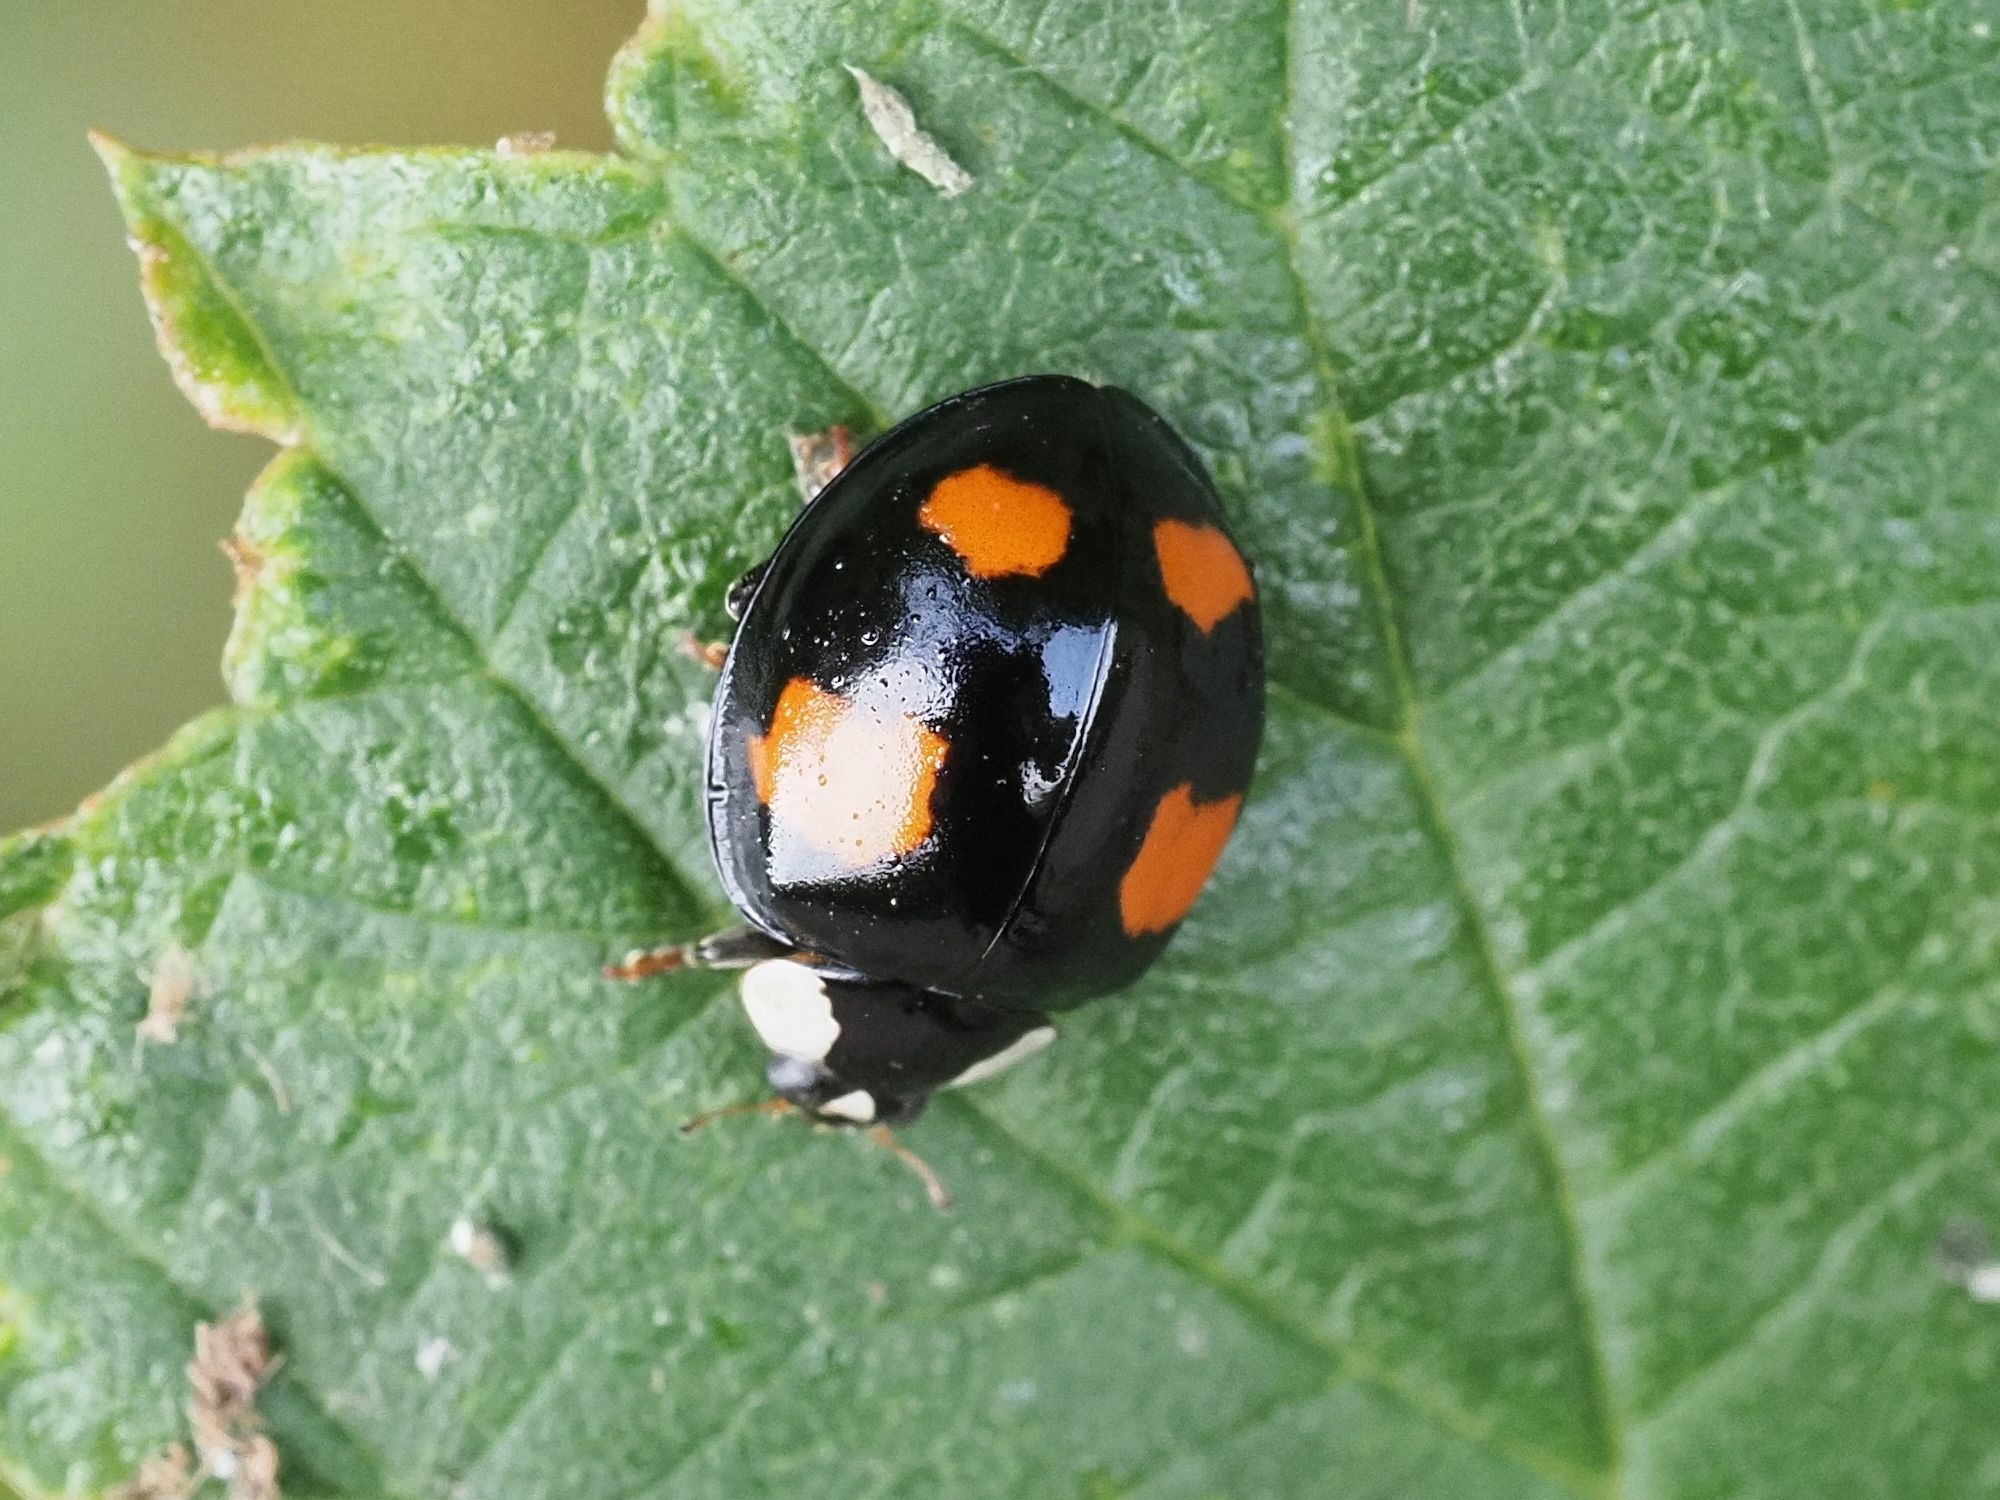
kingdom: Animalia
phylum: Arthropoda
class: Insecta
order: Coleoptera
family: Coccinellidae
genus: Harmonia
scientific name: Harmonia axyridis
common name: Harlequin ladybird
